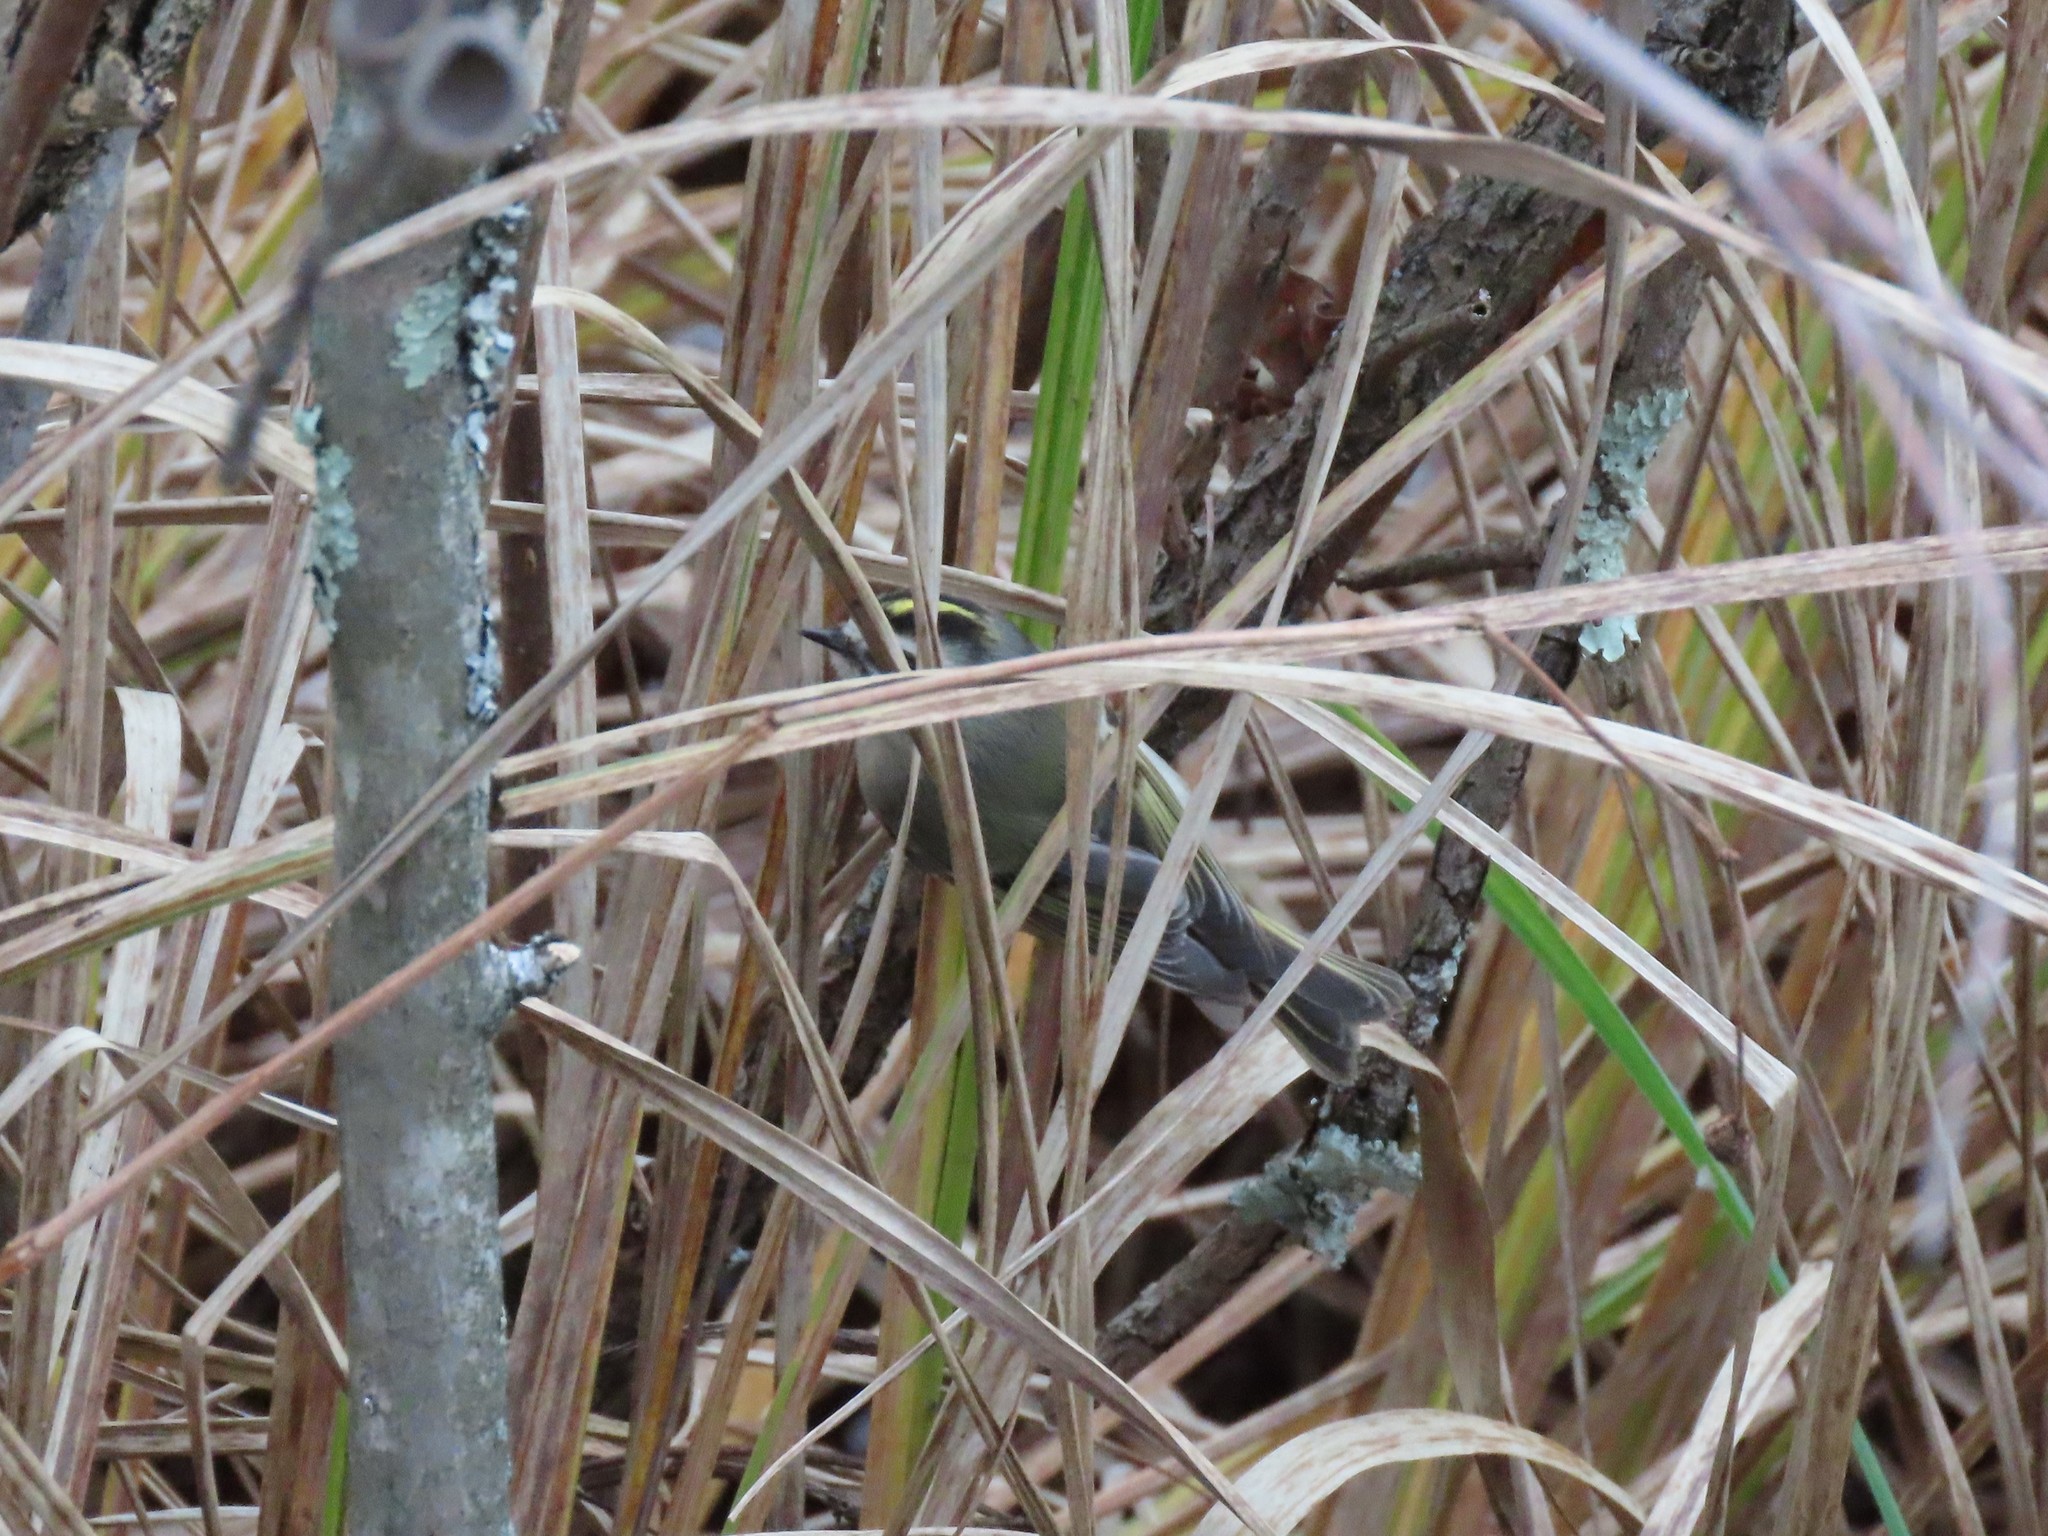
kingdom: Animalia
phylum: Chordata
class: Aves
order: Passeriformes
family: Regulidae
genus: Regulus
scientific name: Regulus satrapa
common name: Golden-crowned kinglet
